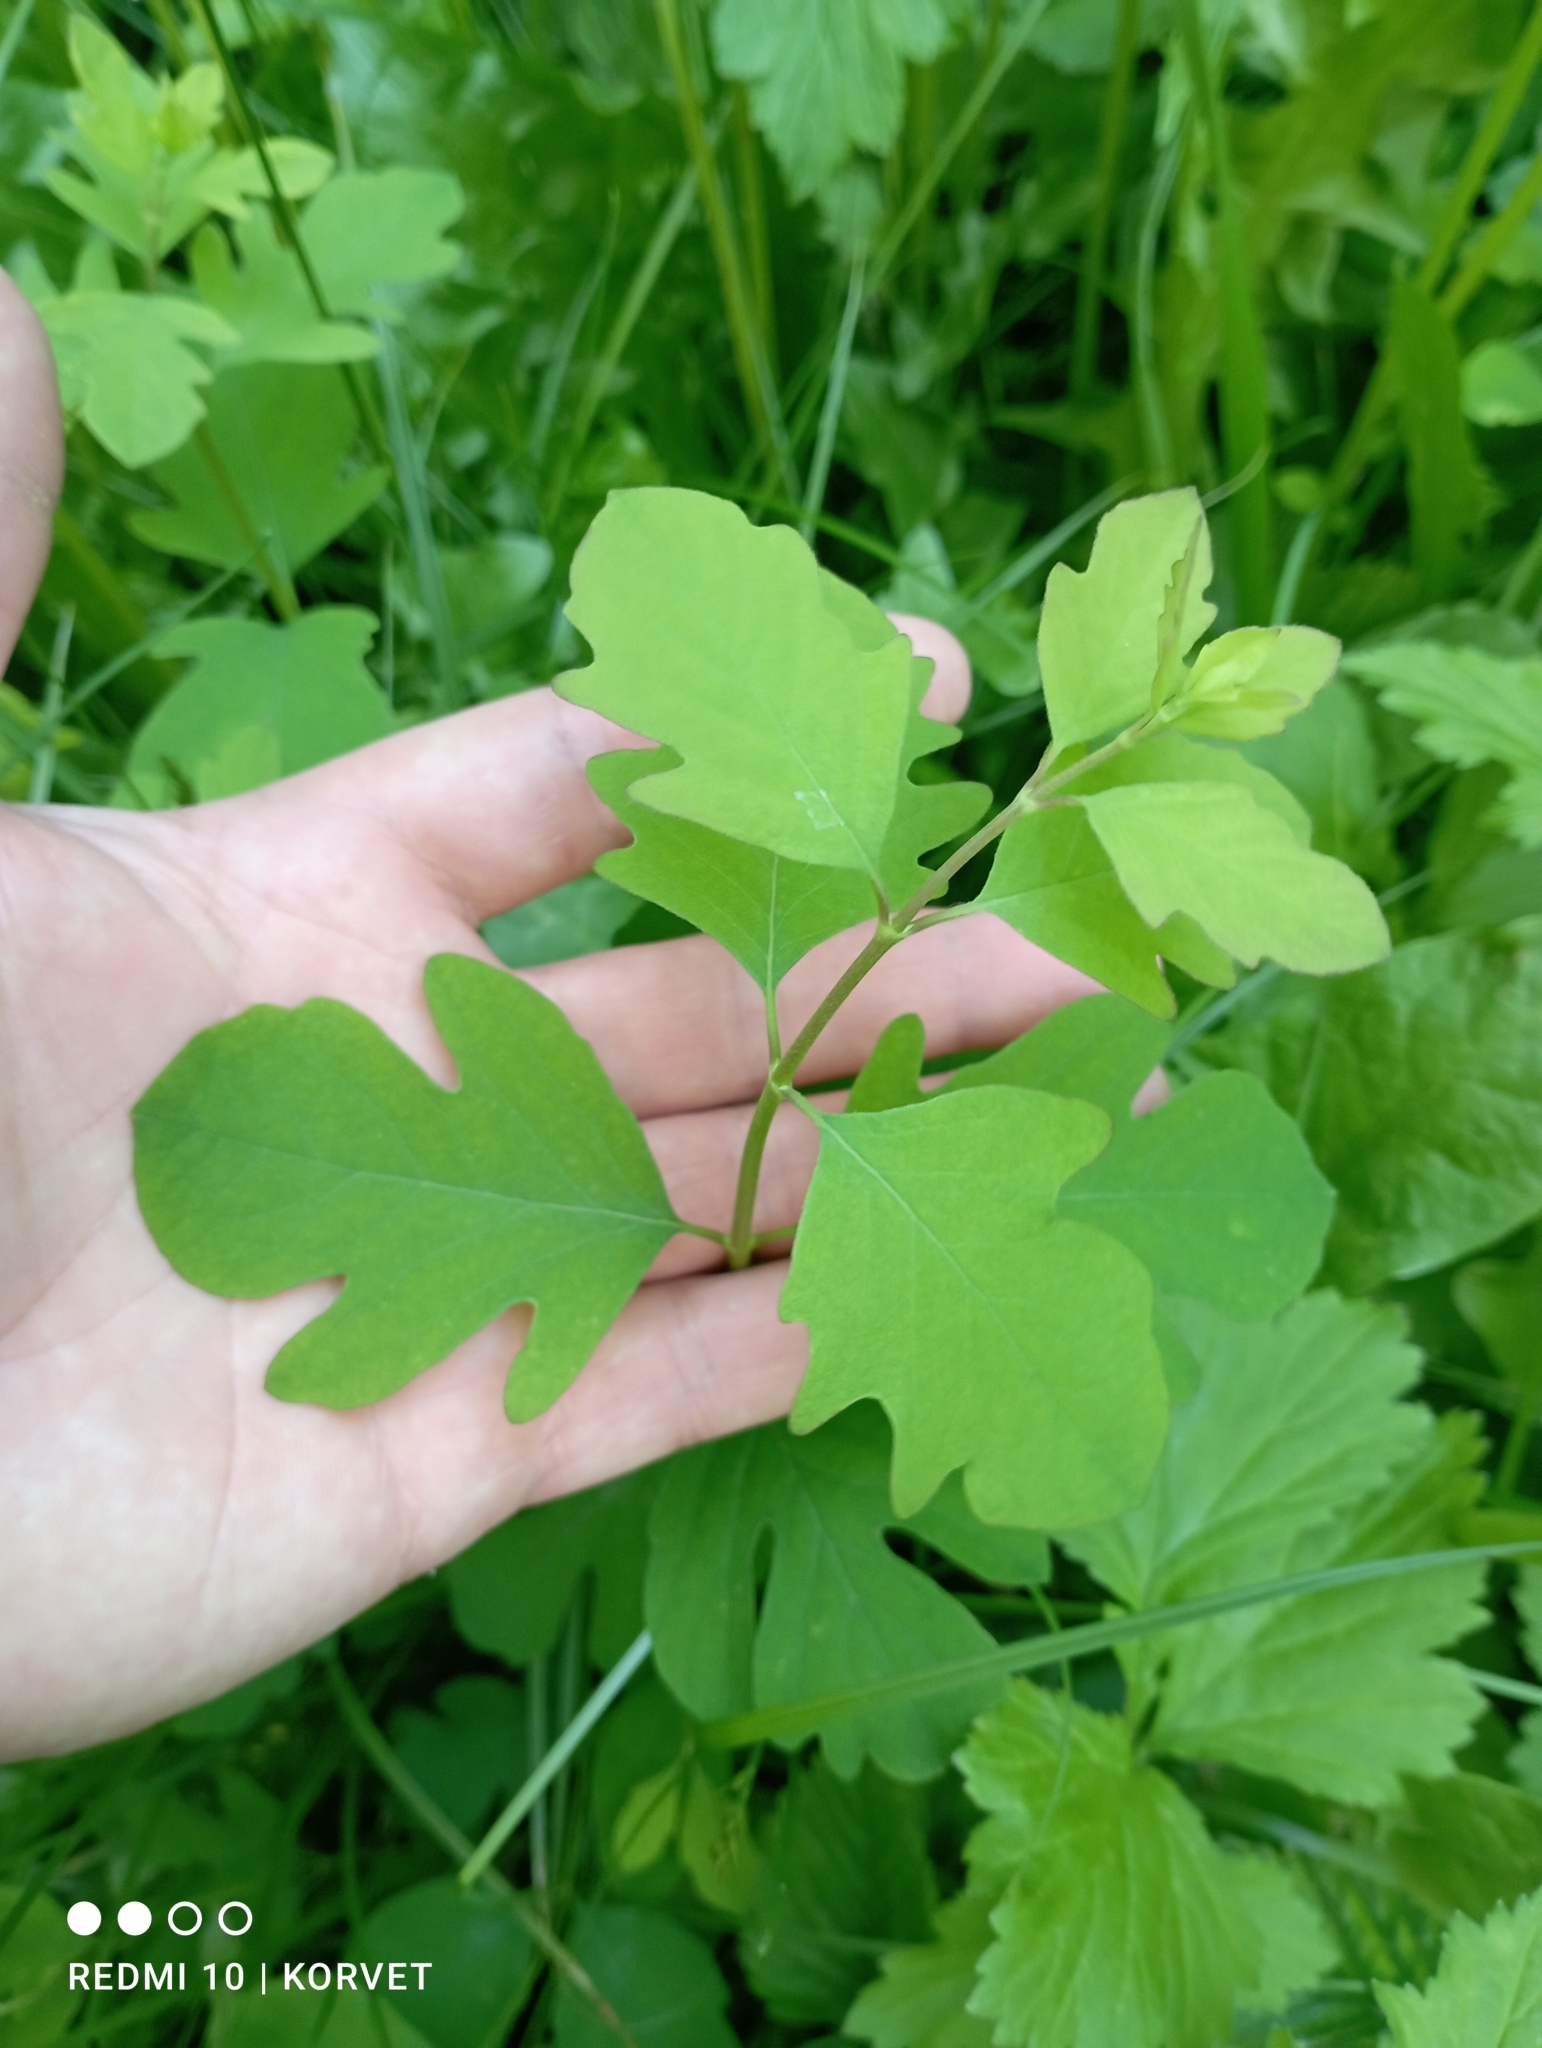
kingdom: Plantae
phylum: Tracheophyta
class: Magnoliopsida
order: Dipsacales
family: Caprifoliaceae
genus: Symphoricarpos
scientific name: Symphoricarpos albus
